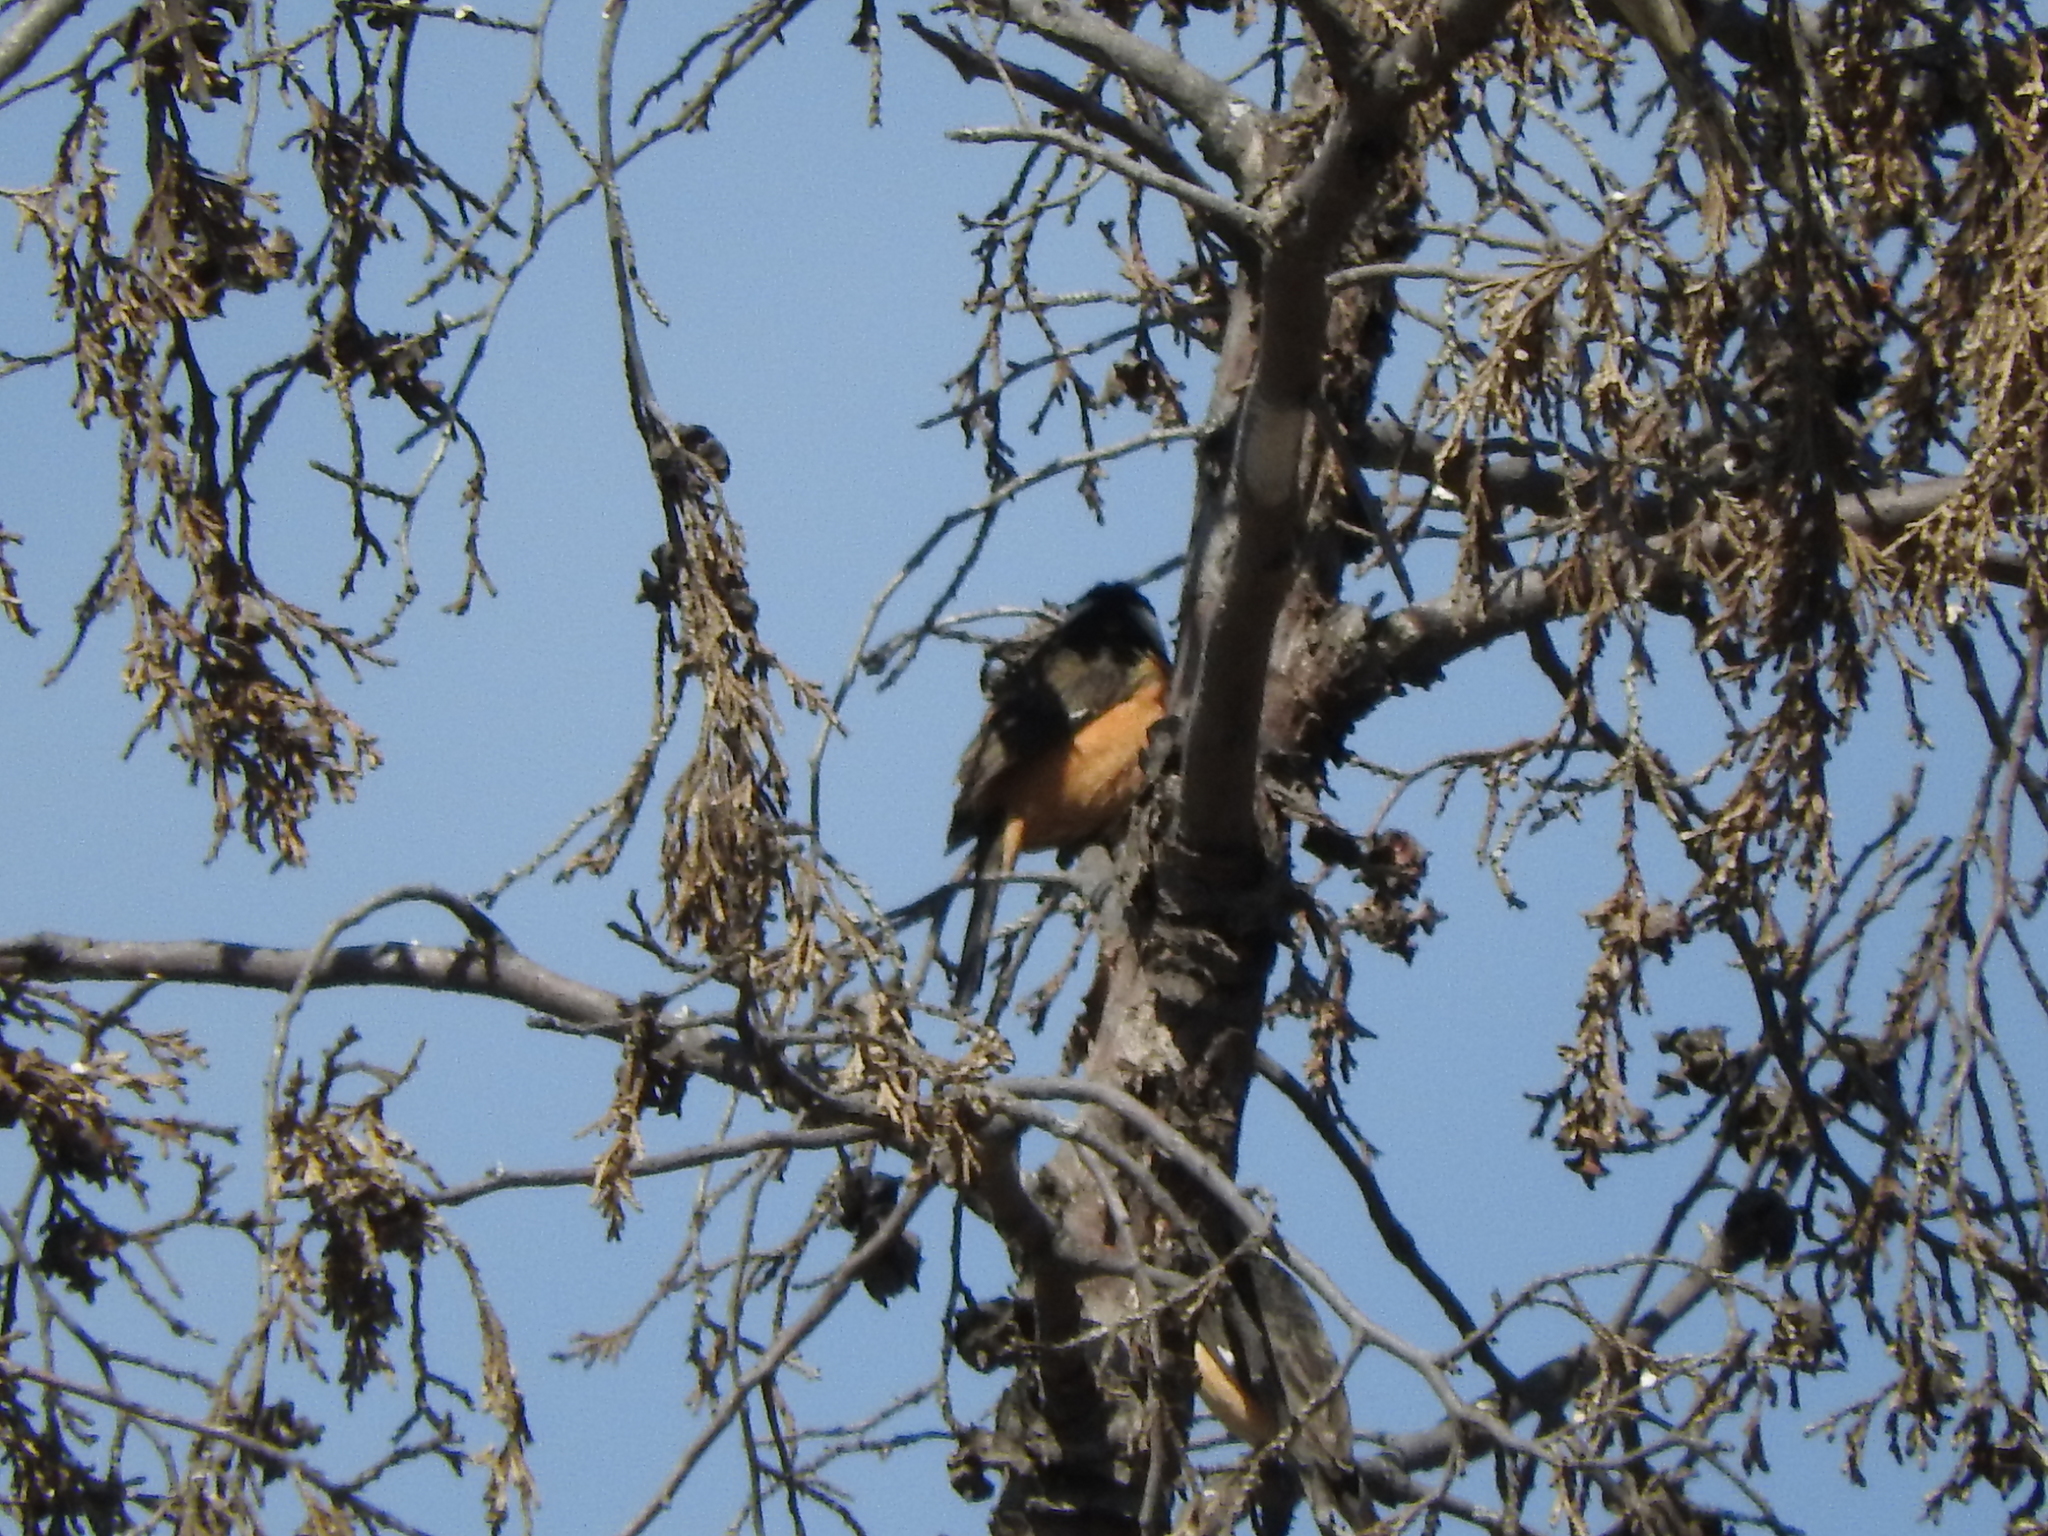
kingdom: Animalia
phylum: Chordata
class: Aves
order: Passeriformes
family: Thraupidae
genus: Sporophila
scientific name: Sporophila torqueola
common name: White-collared seedeater
